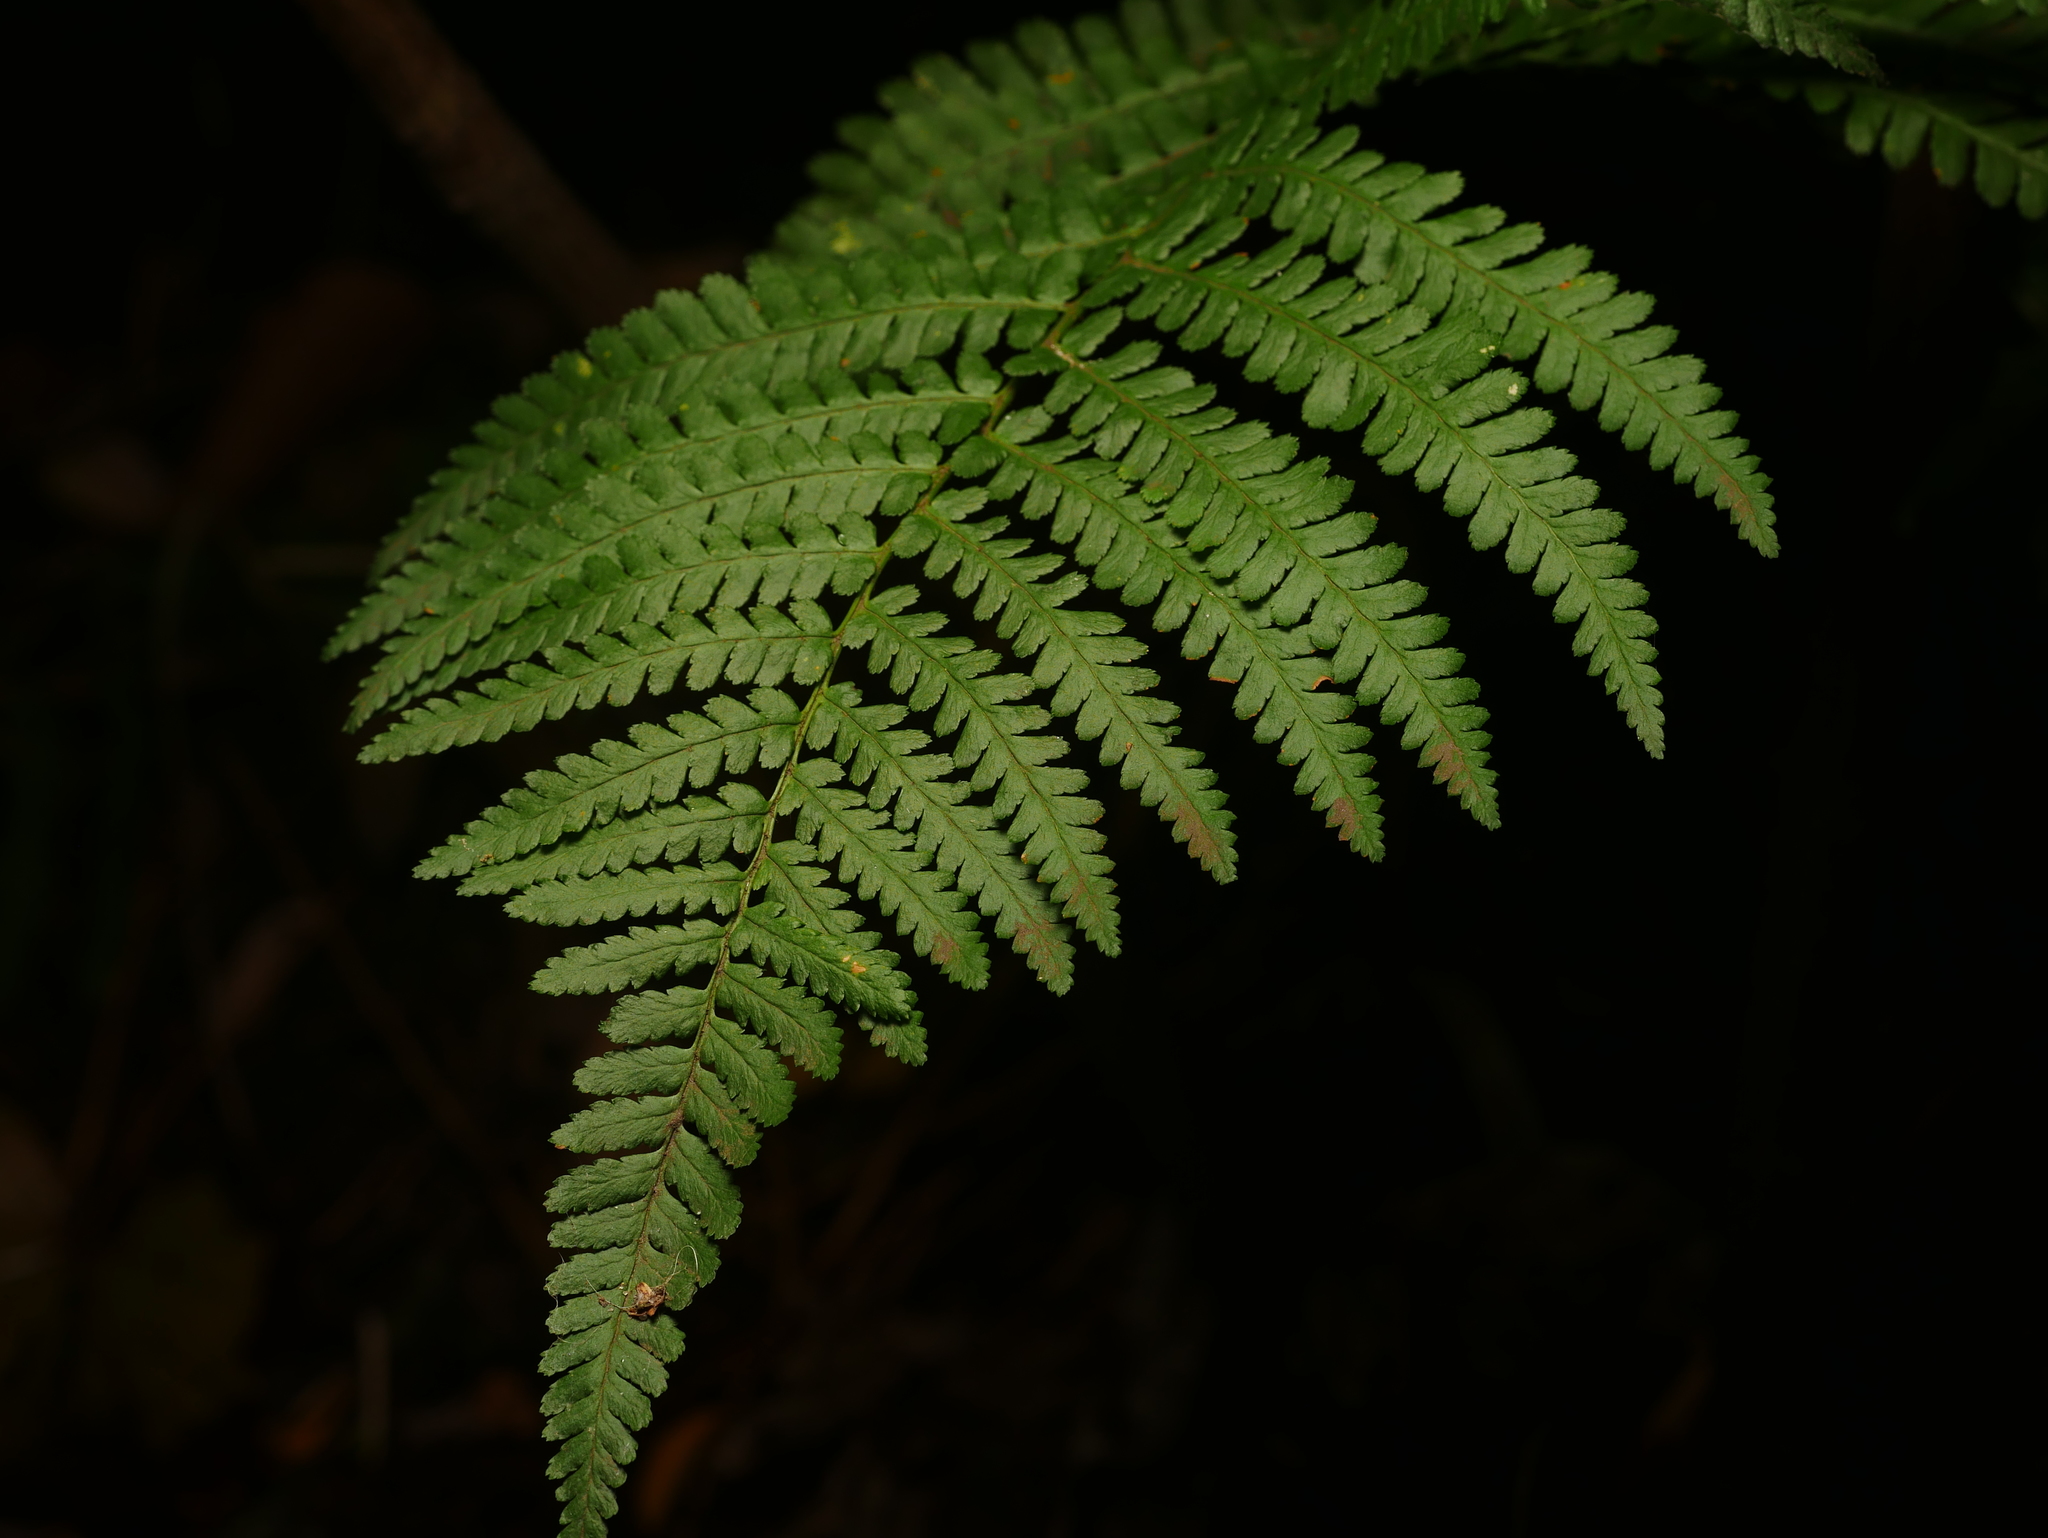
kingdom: Plantae
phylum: Tracheophyta
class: Polypodiopsida
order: Polypodiales
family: Dryopteridaceae
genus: Dryopteris
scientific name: Dryopteris filix-mas
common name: Male fern
